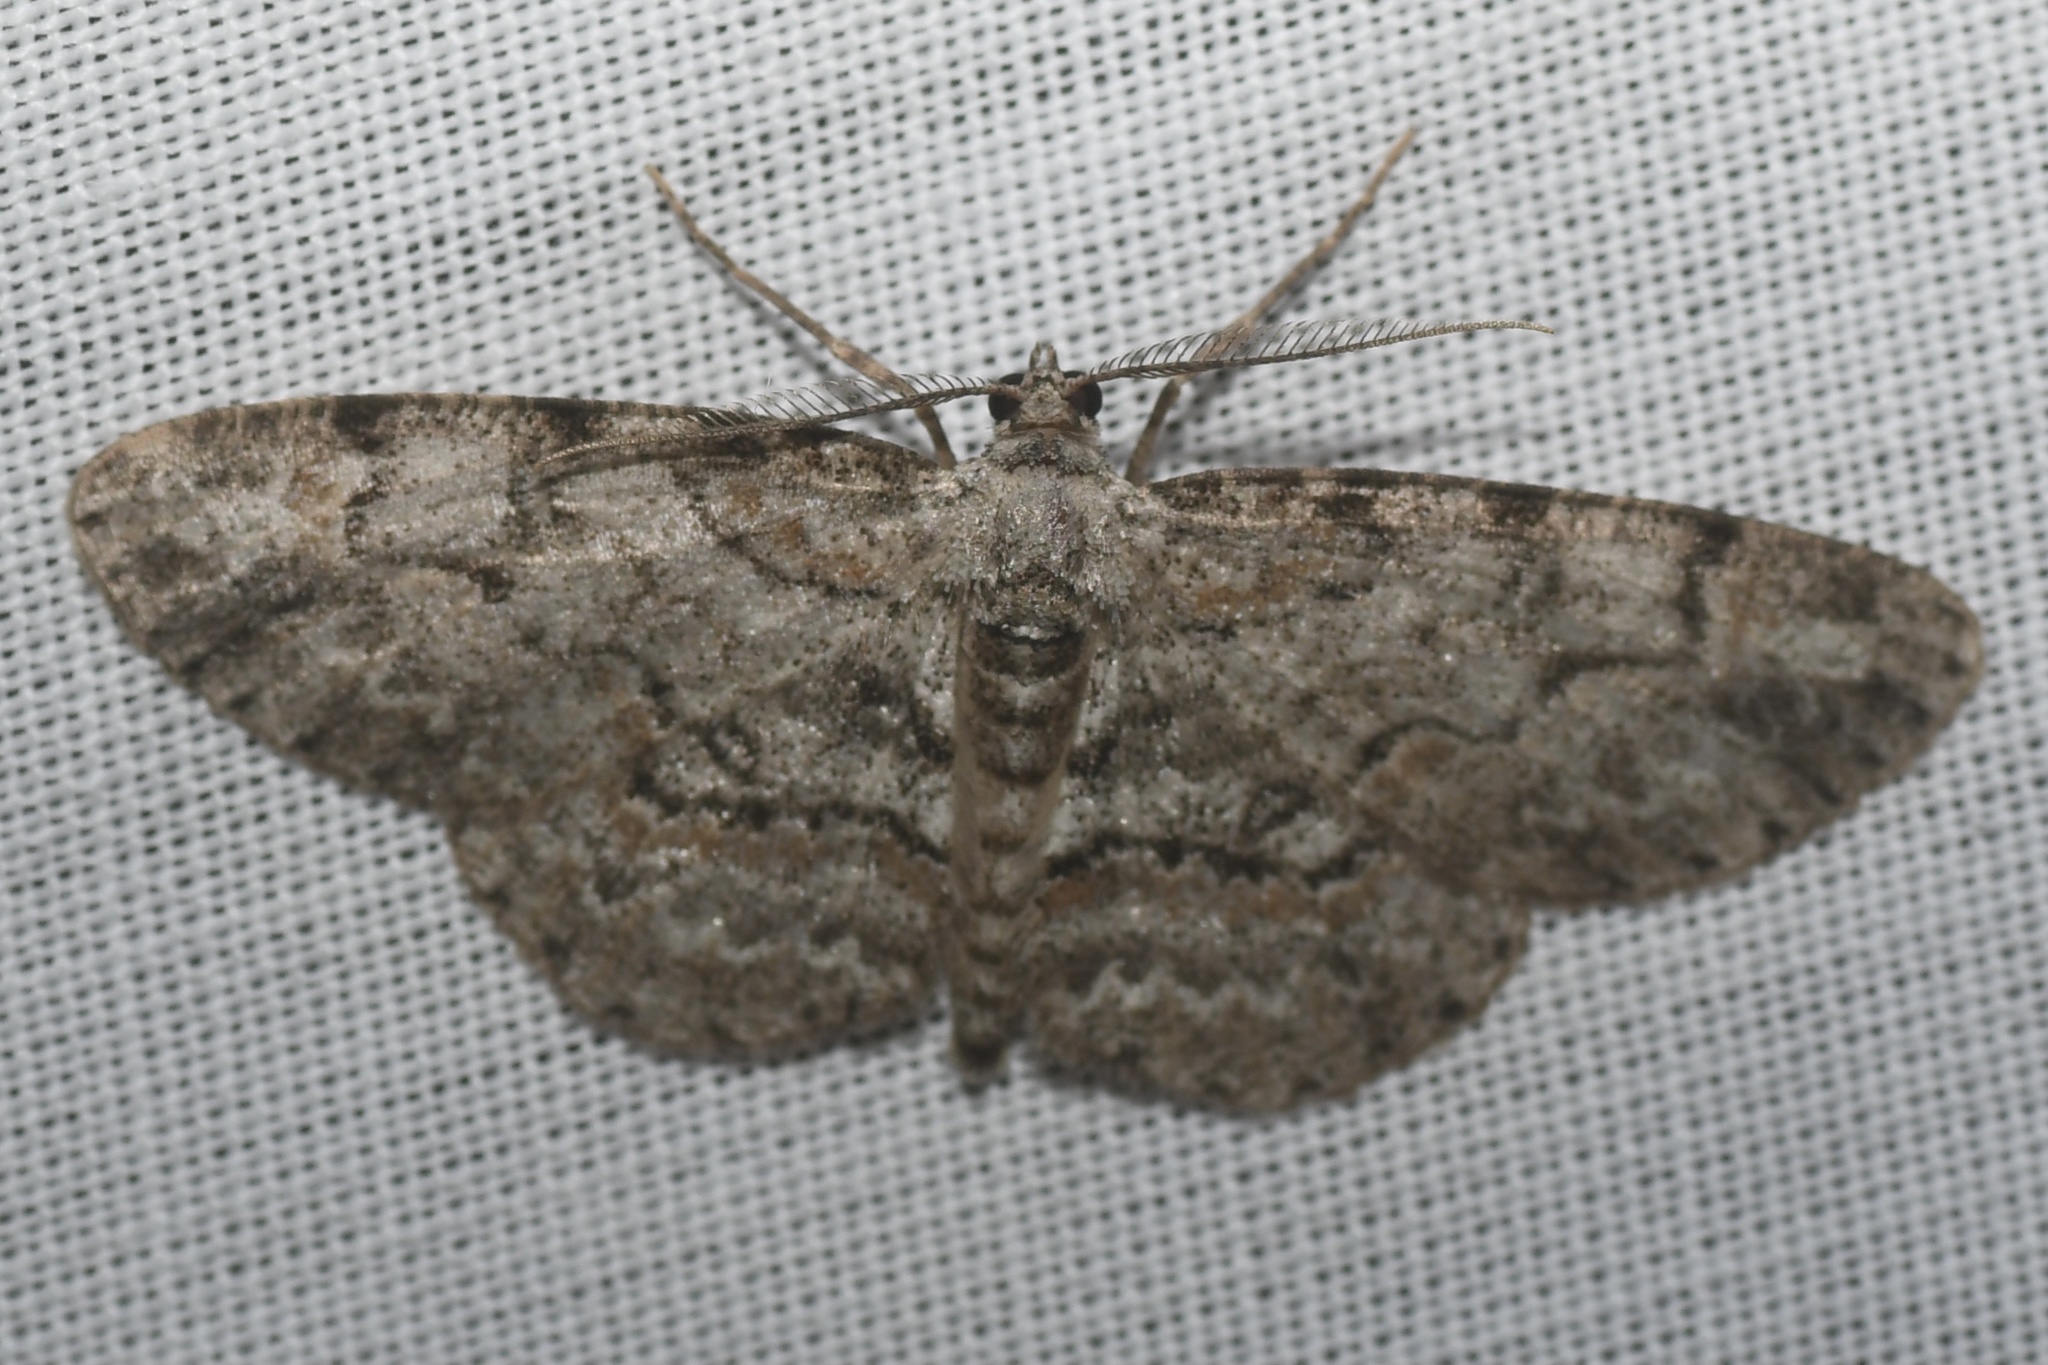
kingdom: Animalia
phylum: Arthropoda
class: Insecta
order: Lepidoptera
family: Geometridae
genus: Iridopsis
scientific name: Iridopsis ephyraria
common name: Pale-winged gray
